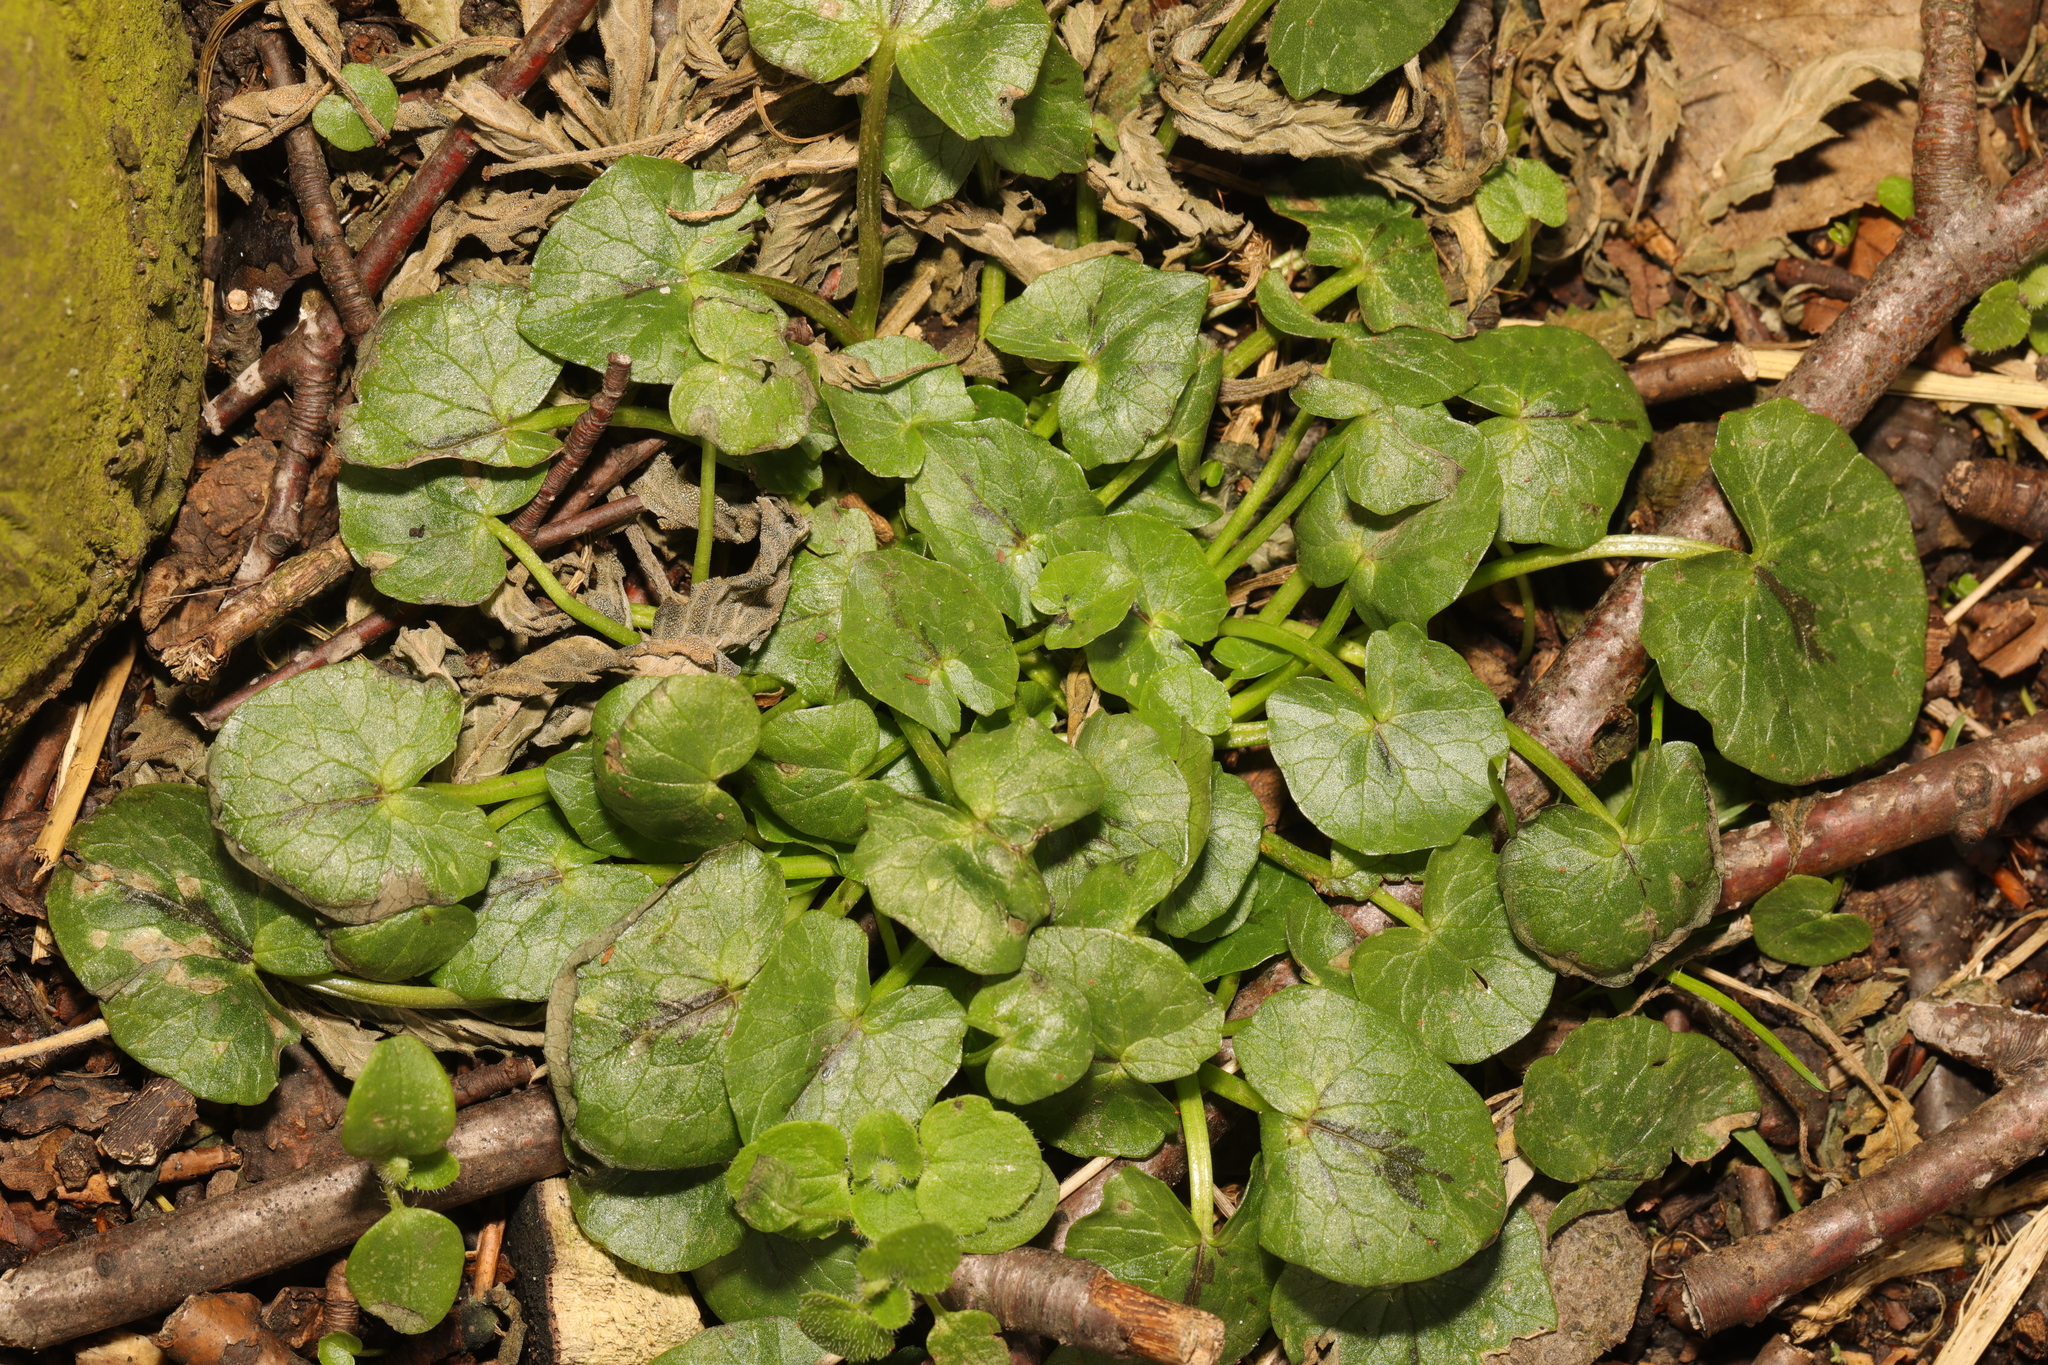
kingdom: Plantae
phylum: Tracheophyta
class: Magnoliopsida
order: Ranunculales
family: Ranunculaceae
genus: Ficaria
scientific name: Ficaria verna
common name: Lesser celandine
